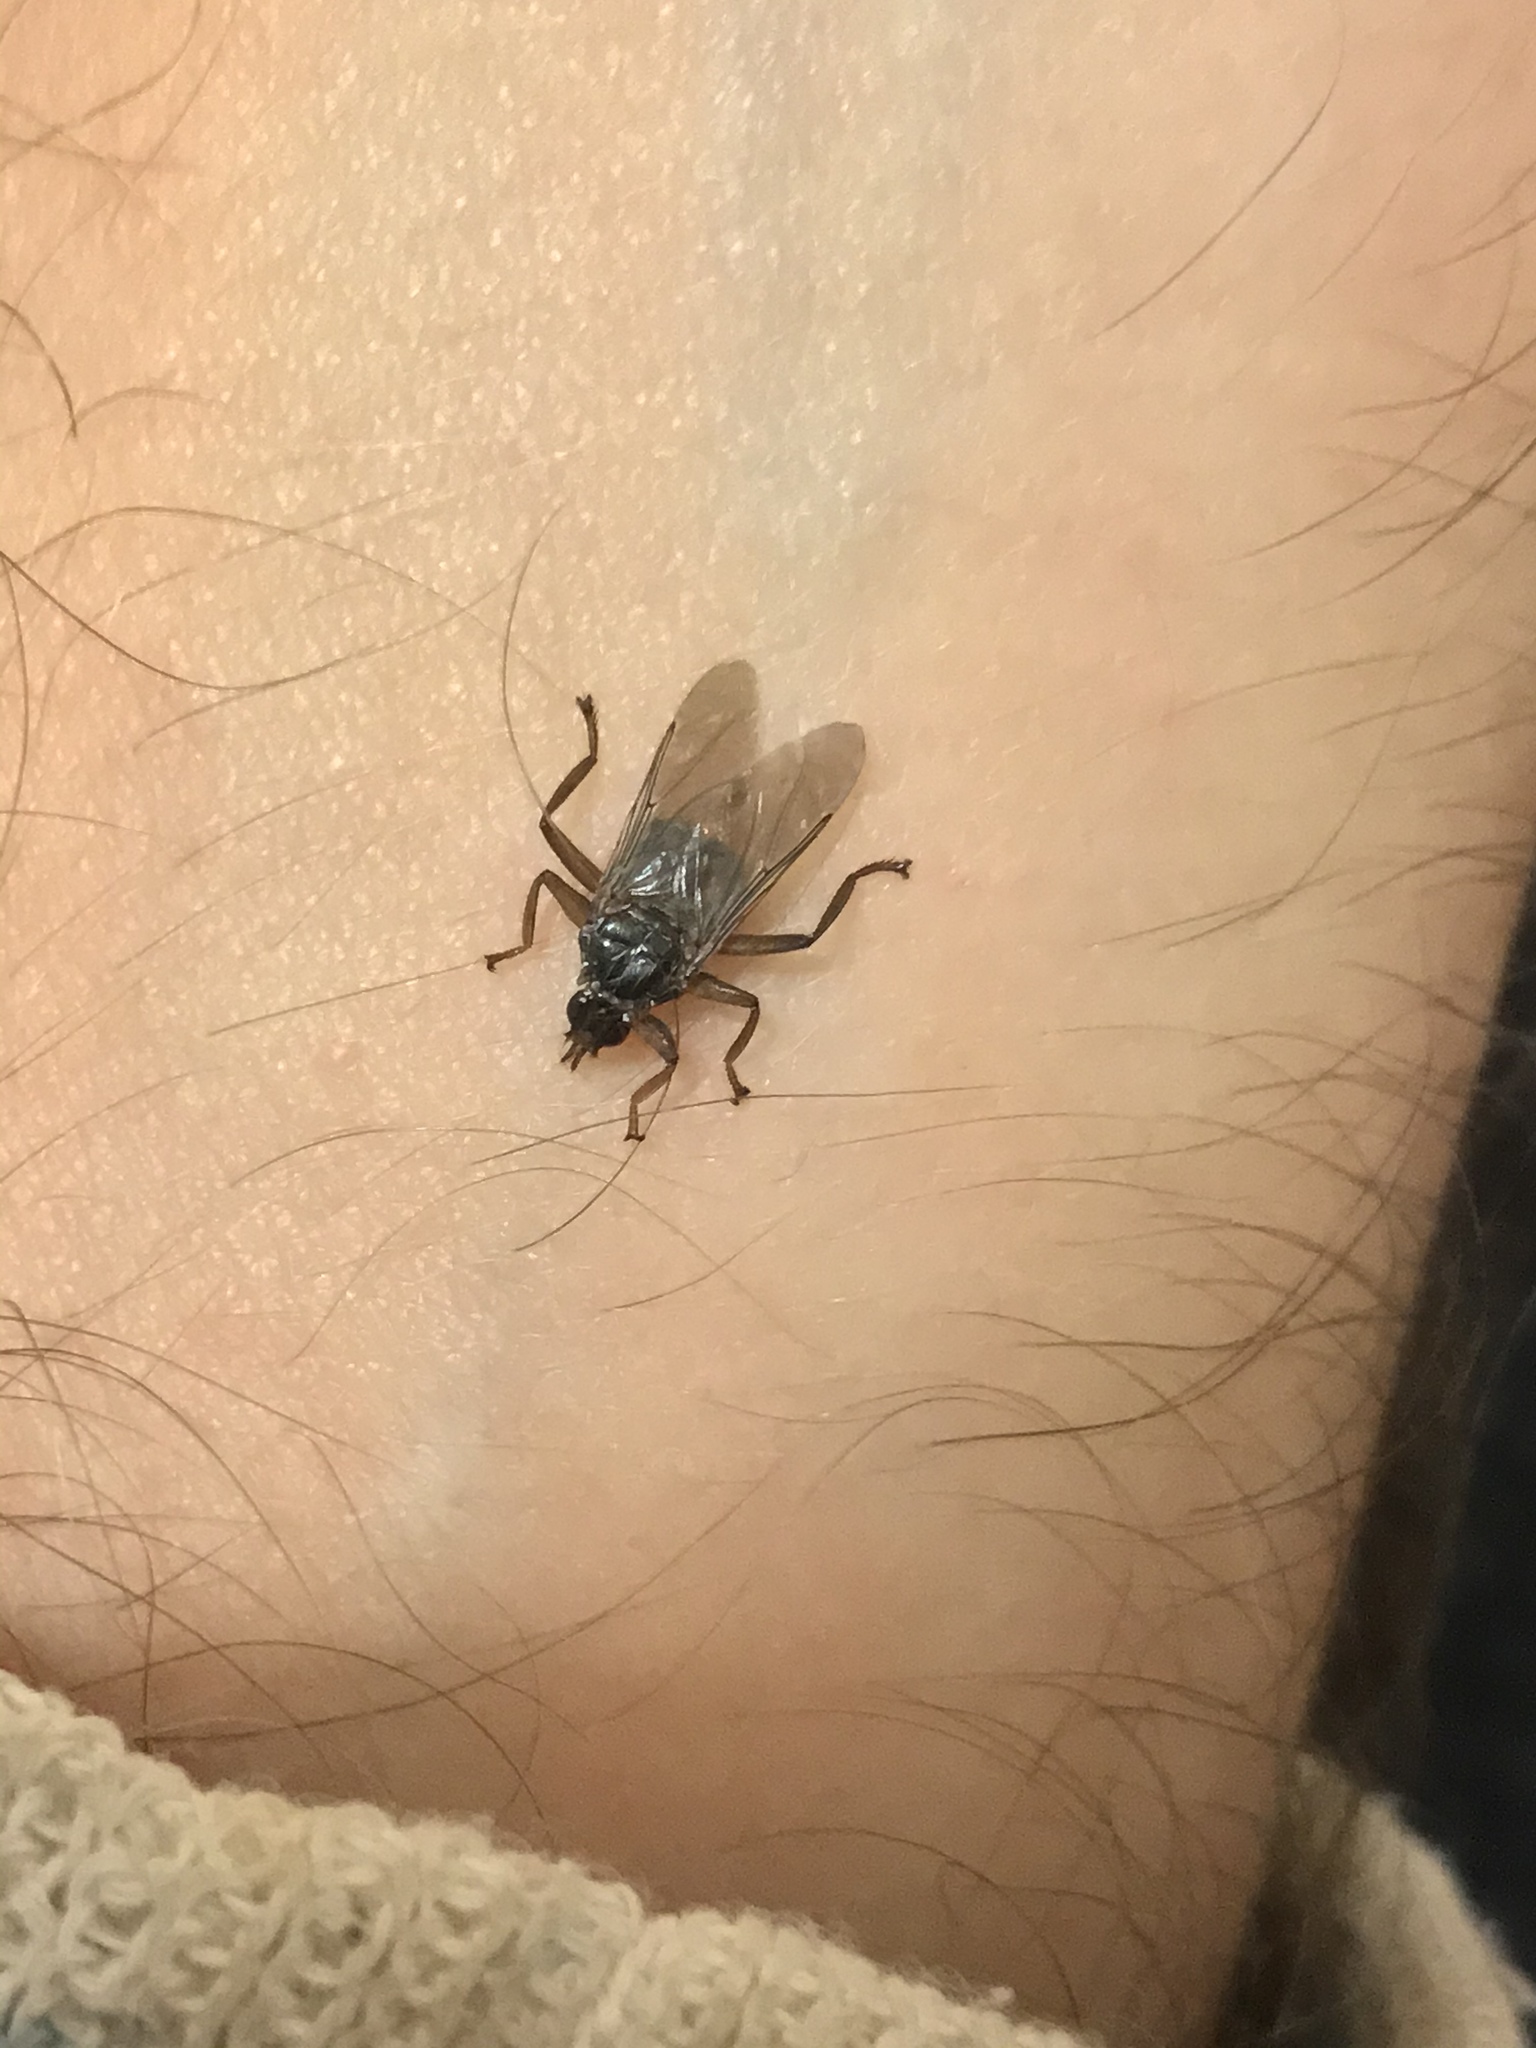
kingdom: Animalia
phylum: Arthropoda
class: Insecta
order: Diptera
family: Hippoboscidae
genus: Pseudolynchia
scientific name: Pseudolynchia canariensis
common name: Louse fly
